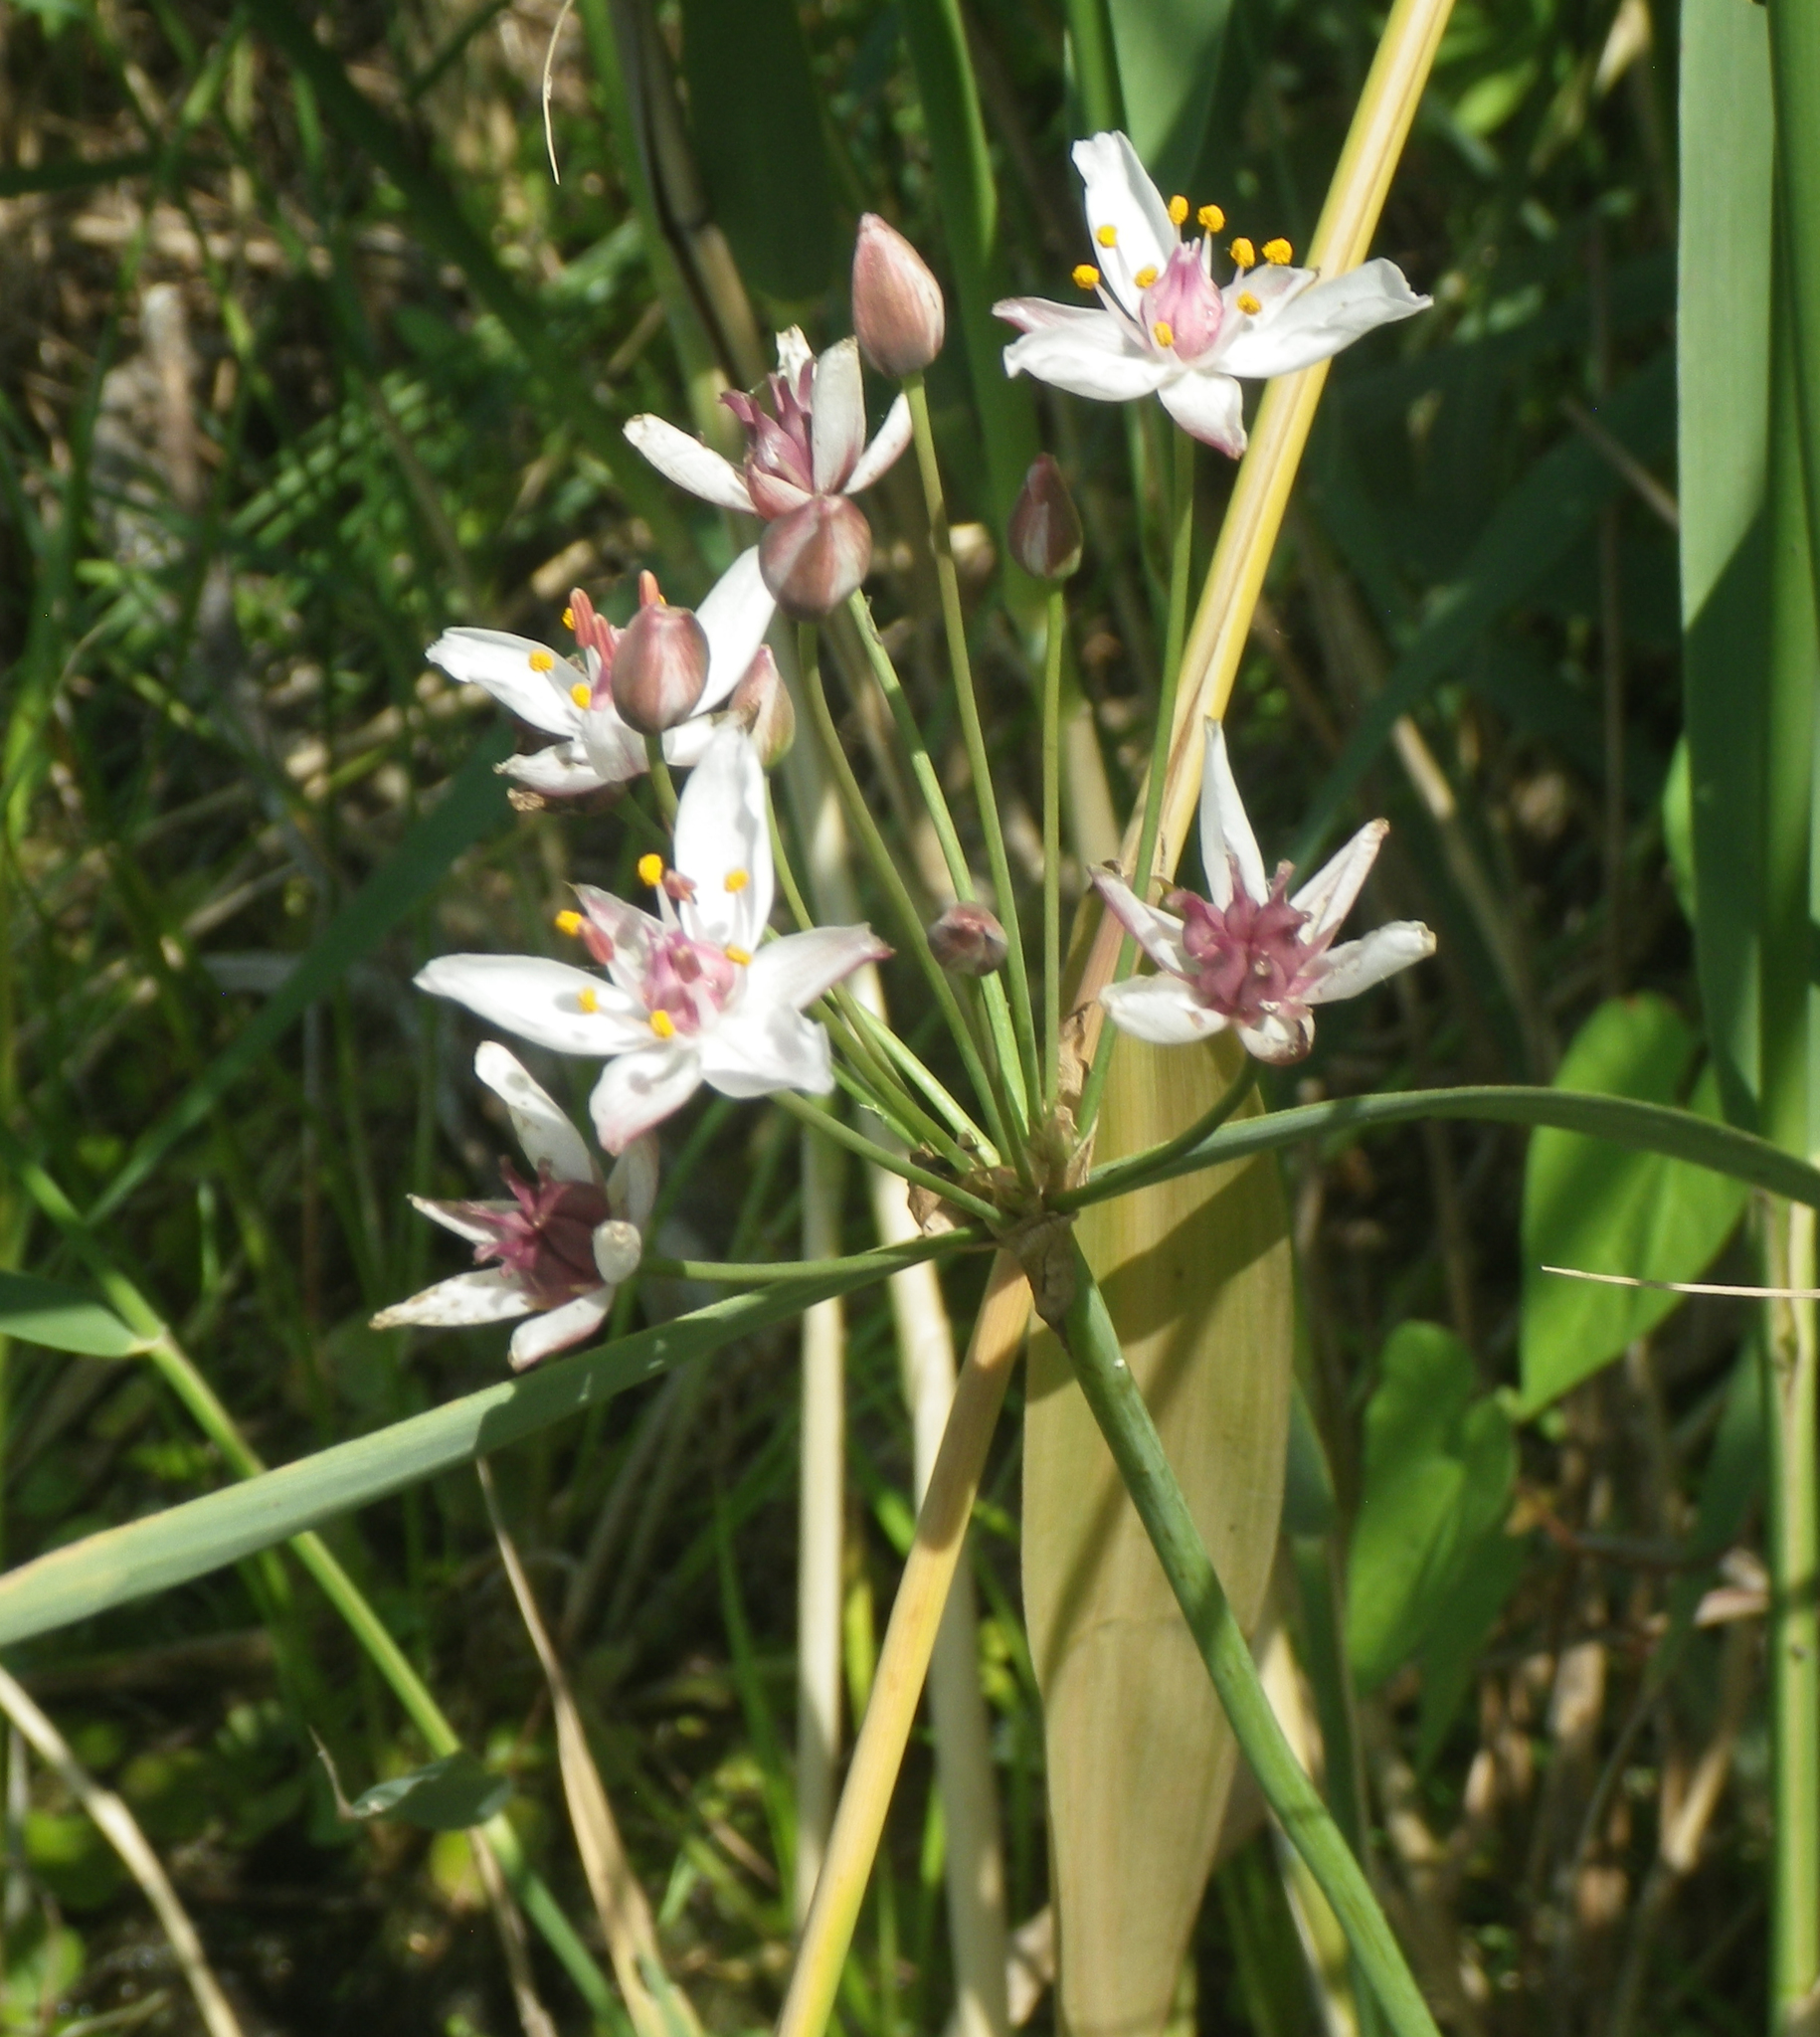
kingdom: Plantae
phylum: Tracheophyta
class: Liliopsida
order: Alismatales
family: Butomaceae
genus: Butomus
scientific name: Butomus umbellatus
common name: Flowering-rush
